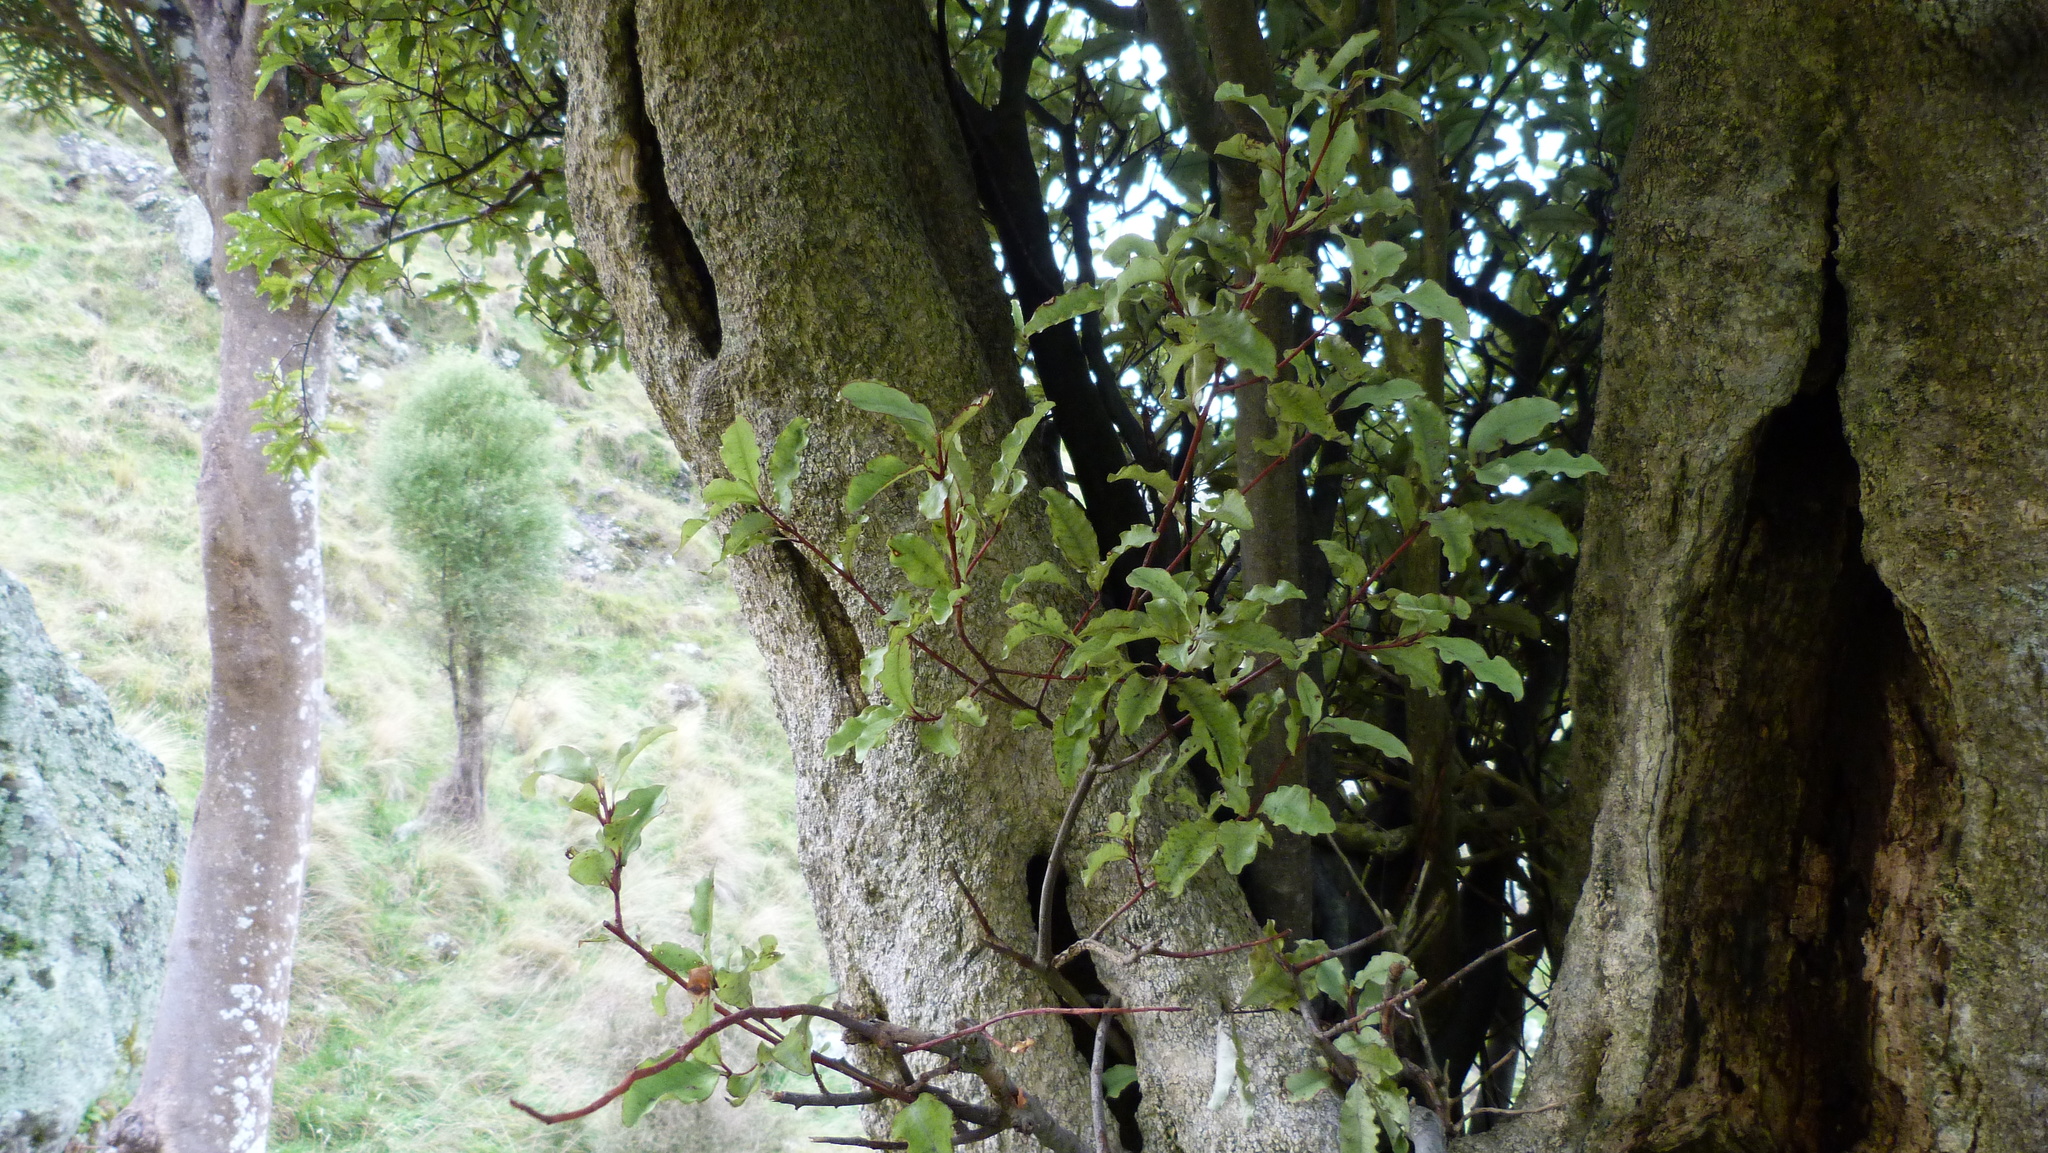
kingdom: Plantae
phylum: Tracheophyta
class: Magnoliopsida
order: Ericales
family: Primulaceae
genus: Myrsine
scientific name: Myrsine australis
